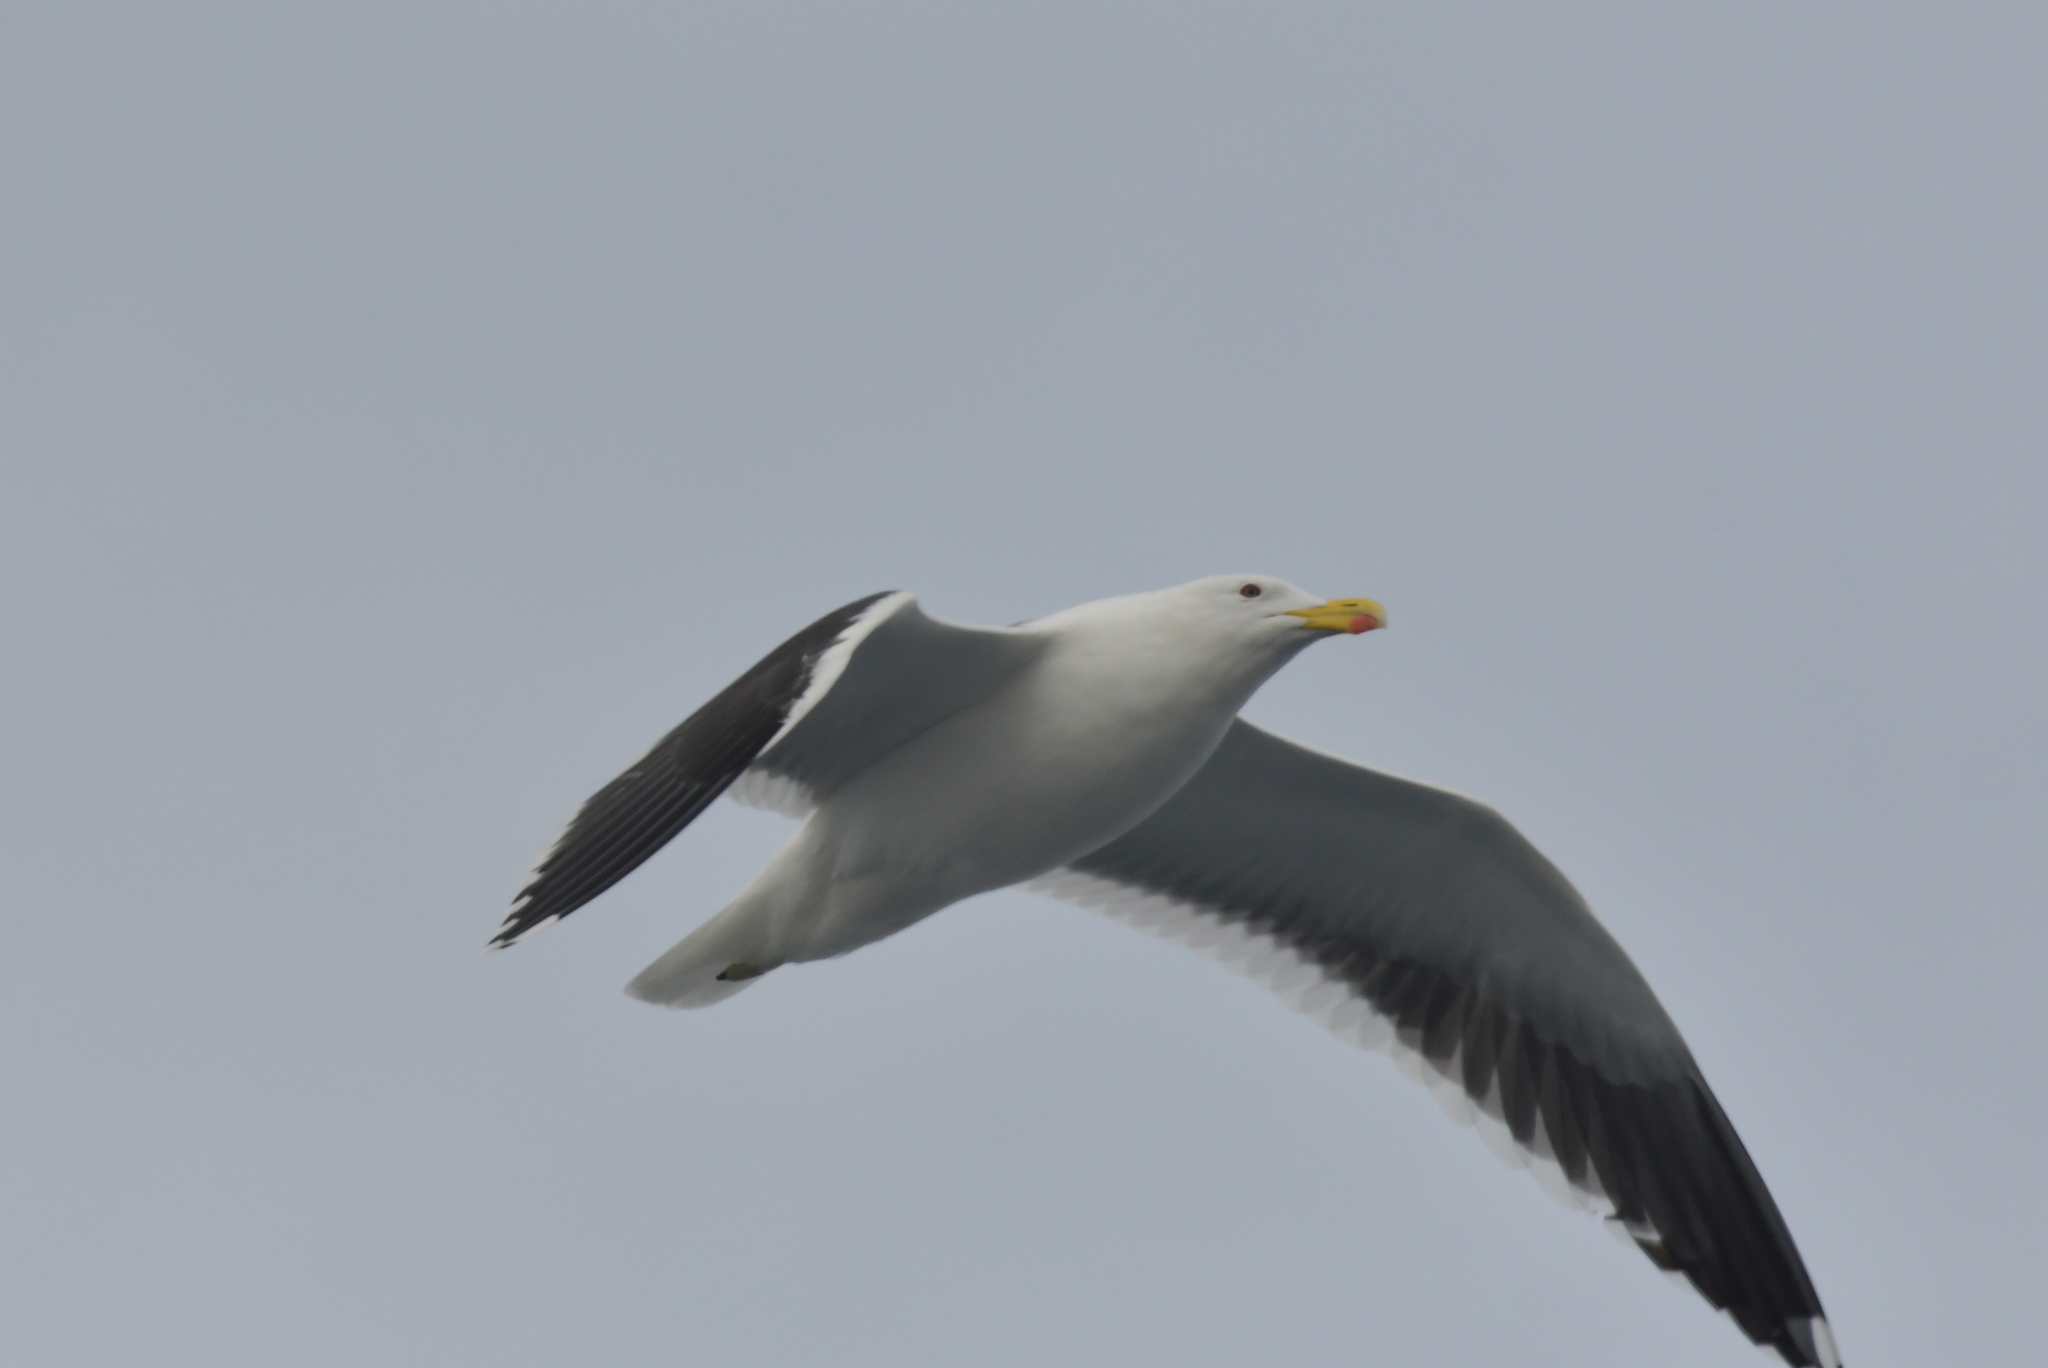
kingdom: Animalia
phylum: Chordata
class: Aves
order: Charadriiformes
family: Laridae
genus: Larus
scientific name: Larus dominicanus
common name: Kelp gull
